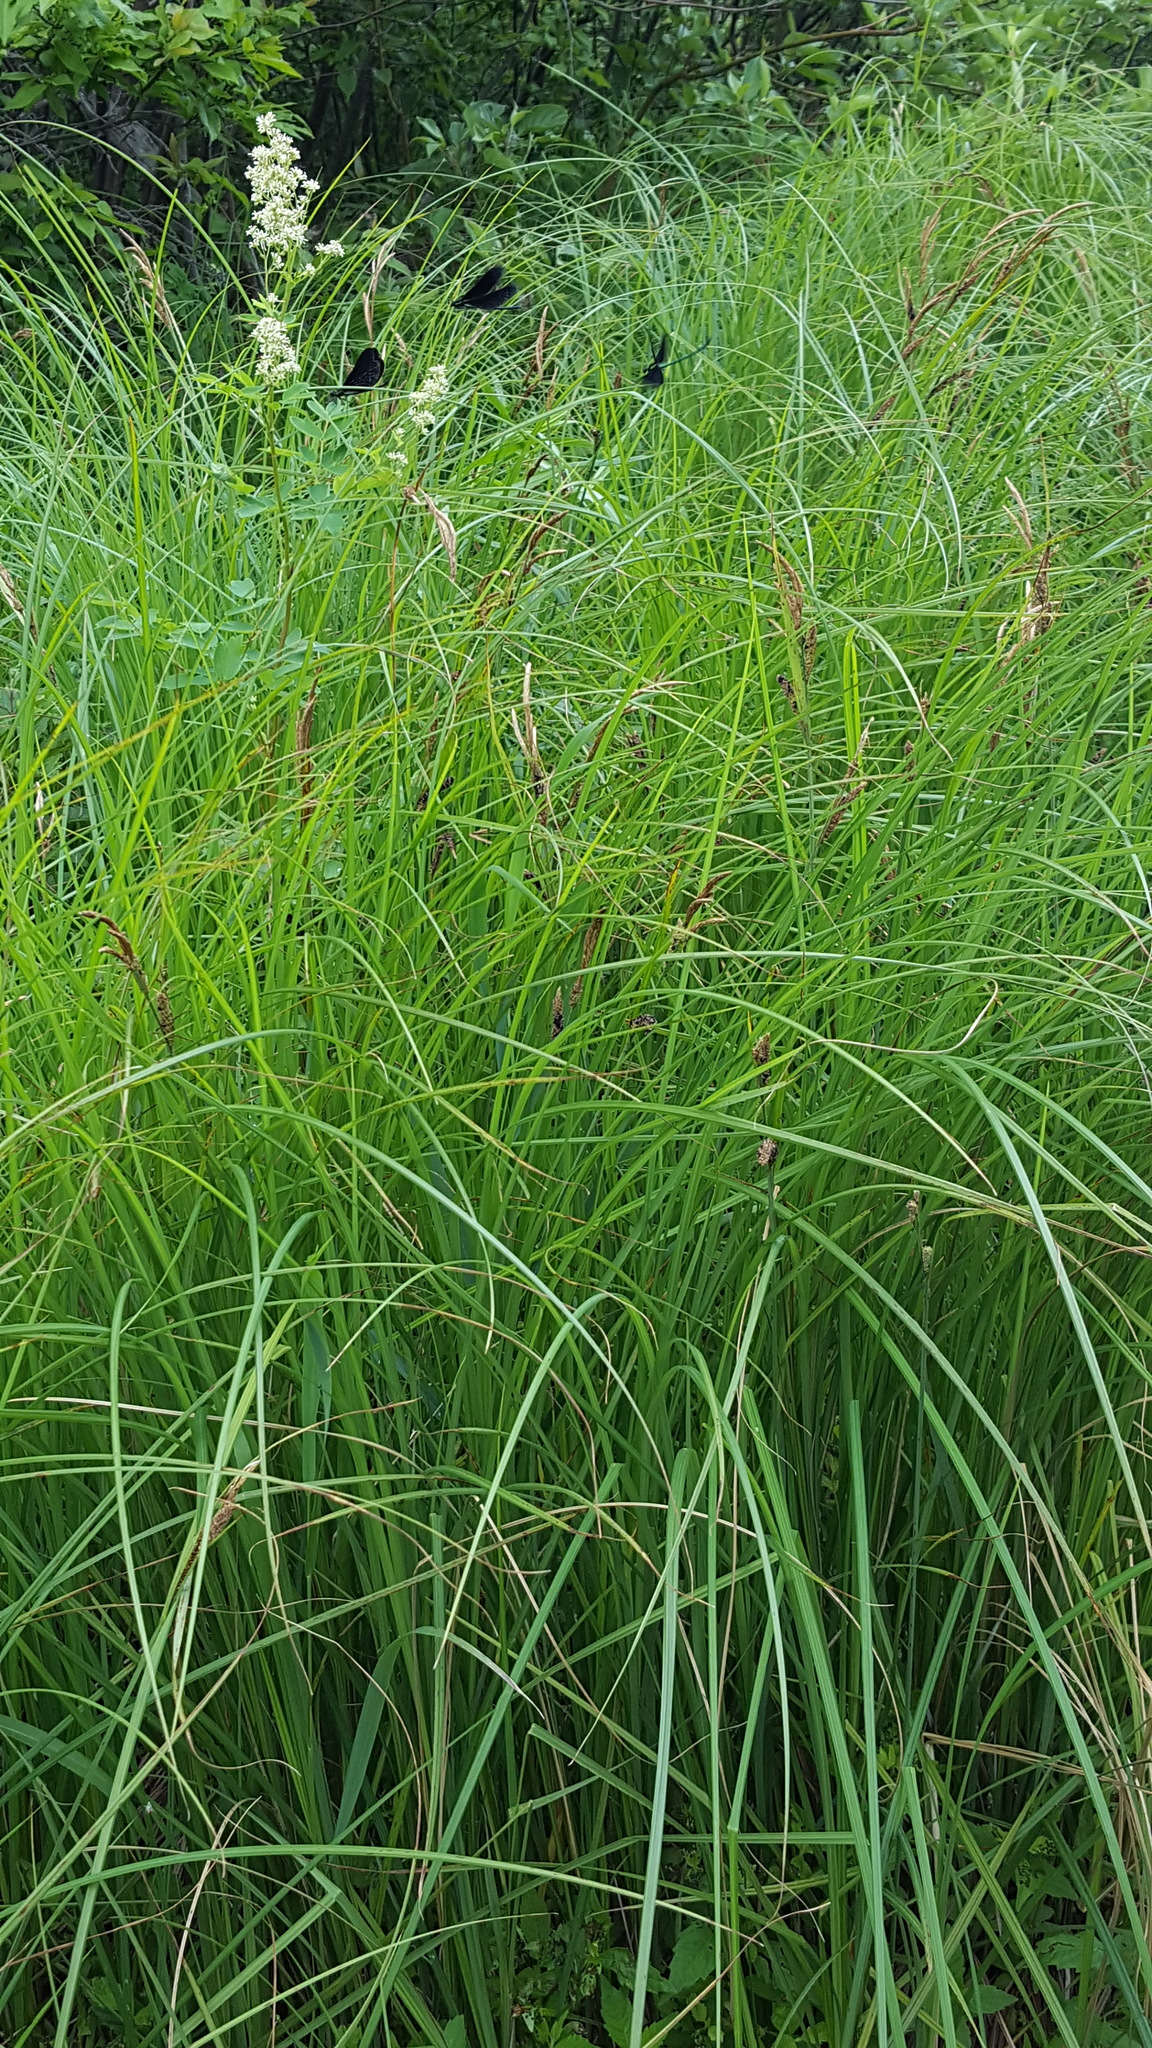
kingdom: Plantae
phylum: Tracheophyta
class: Liliopsida
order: Poales
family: Cyperaceae
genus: Carex
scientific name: Carex stricta
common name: Hummock sedge
